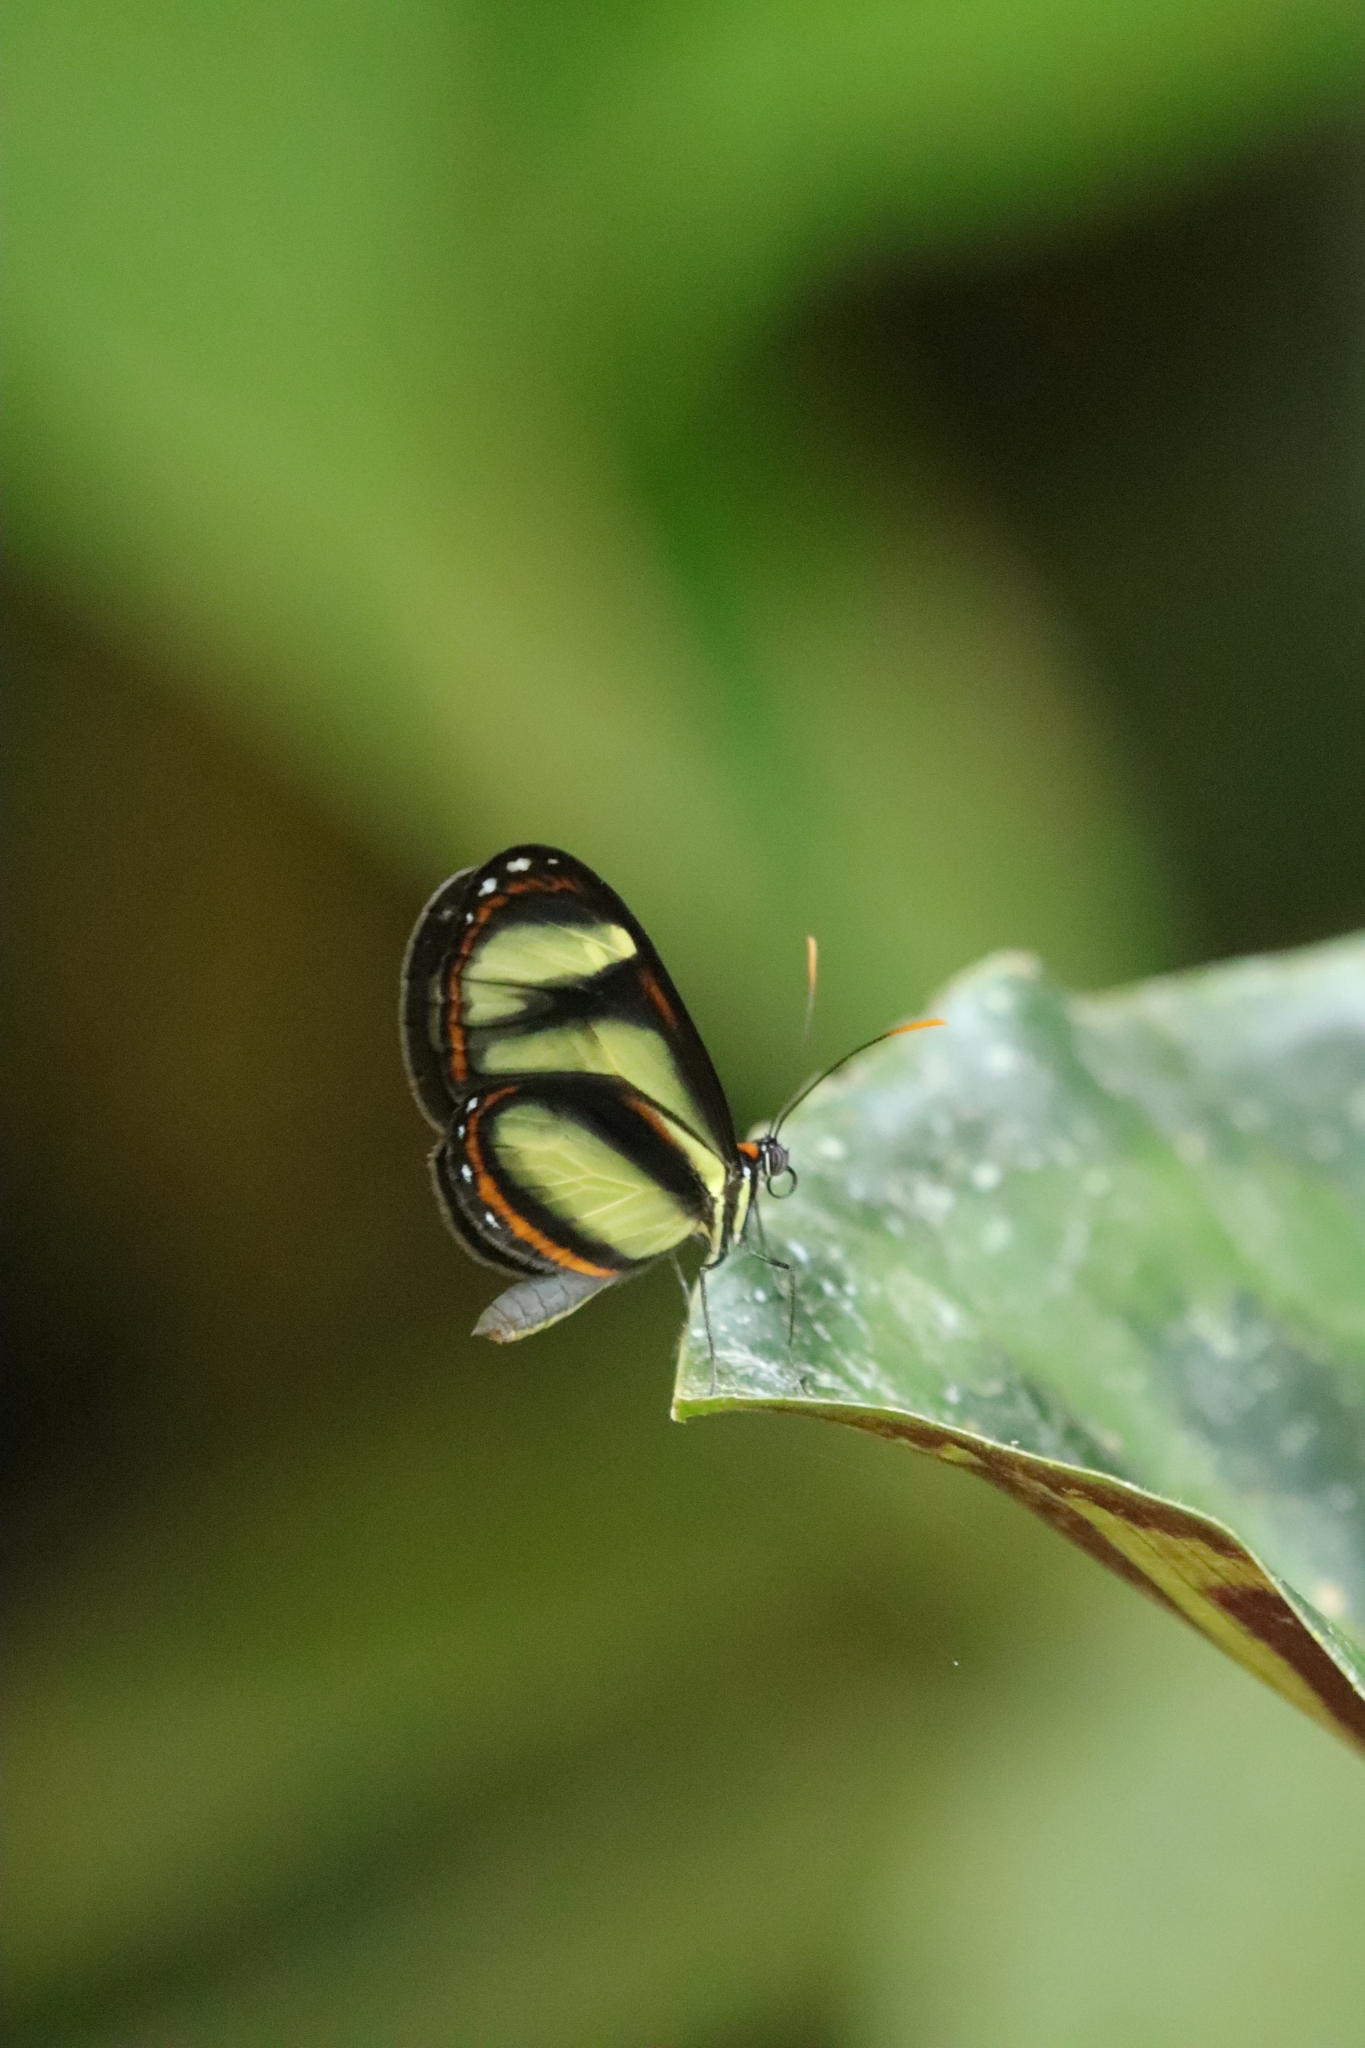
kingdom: Animalia
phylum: Arthropoda
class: Insecta
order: Lepidoptera
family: Nymphalidae
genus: Ithomia
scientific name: Ithomia salapia
